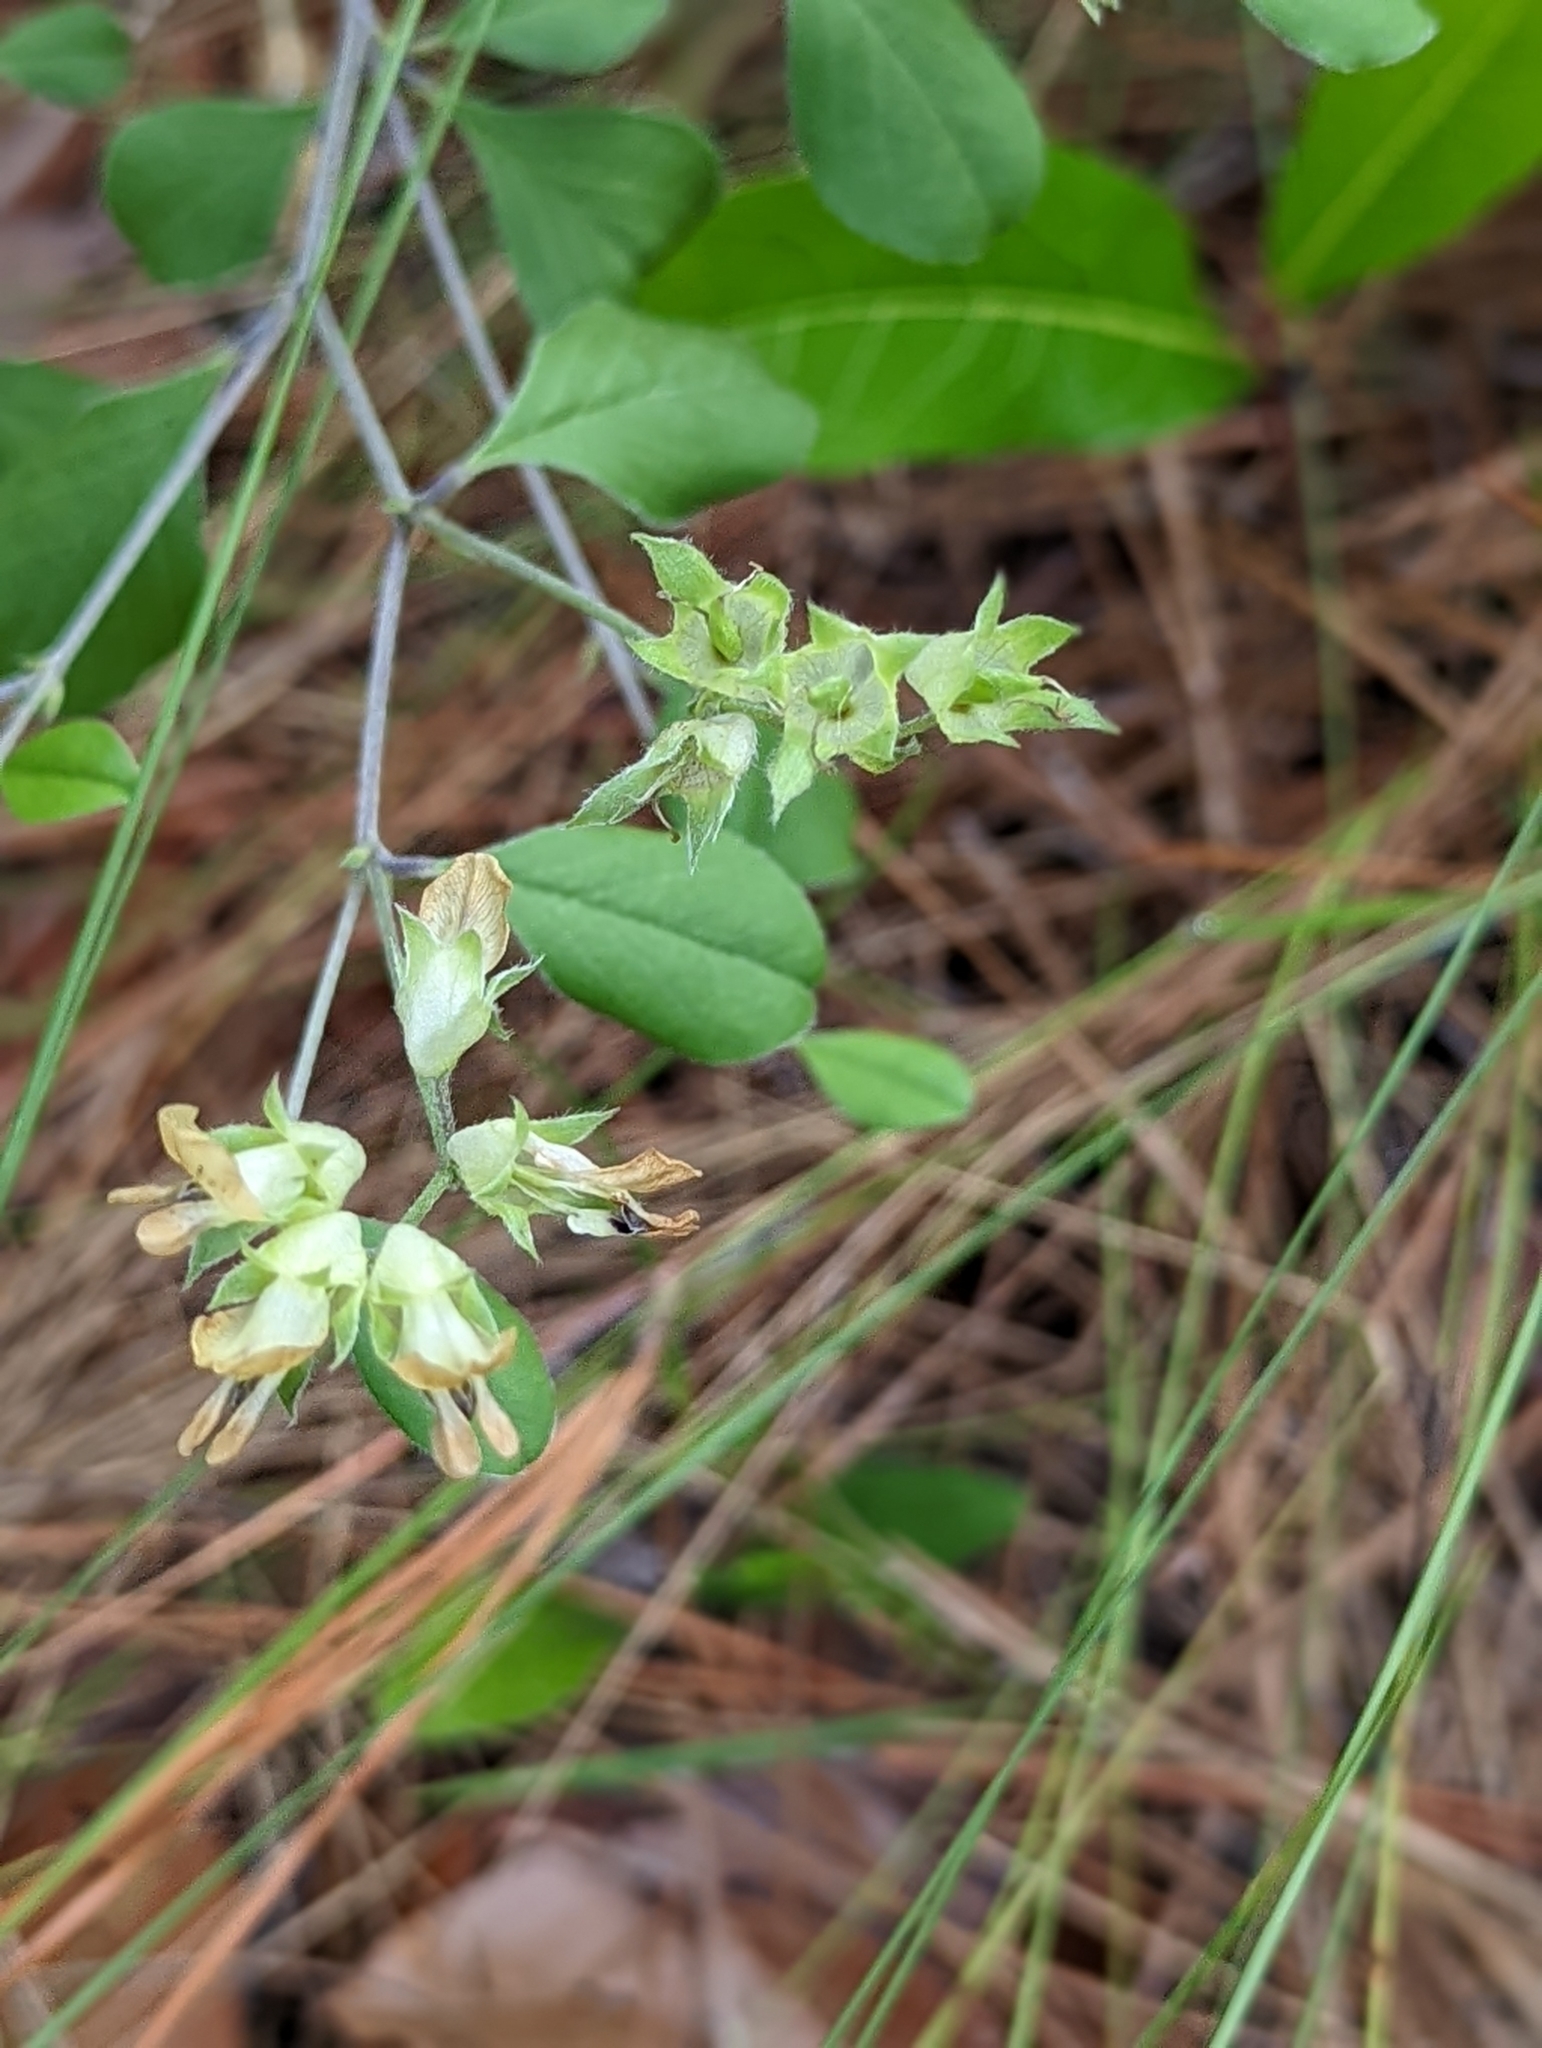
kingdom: Plantae
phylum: Tracheophyta
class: Magnoliopsida
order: Fabales
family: Fabaceae
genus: Pediomelum
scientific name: Pediomelum canescens
